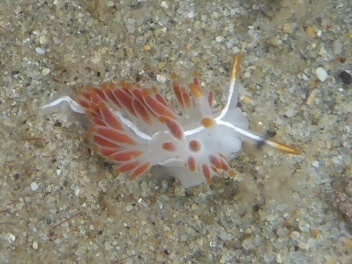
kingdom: Animalia
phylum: Mollusca
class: Gastropoda
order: Nudibranchia
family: Coryphellidae
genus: Coryphella
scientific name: Coryphella trilineata
